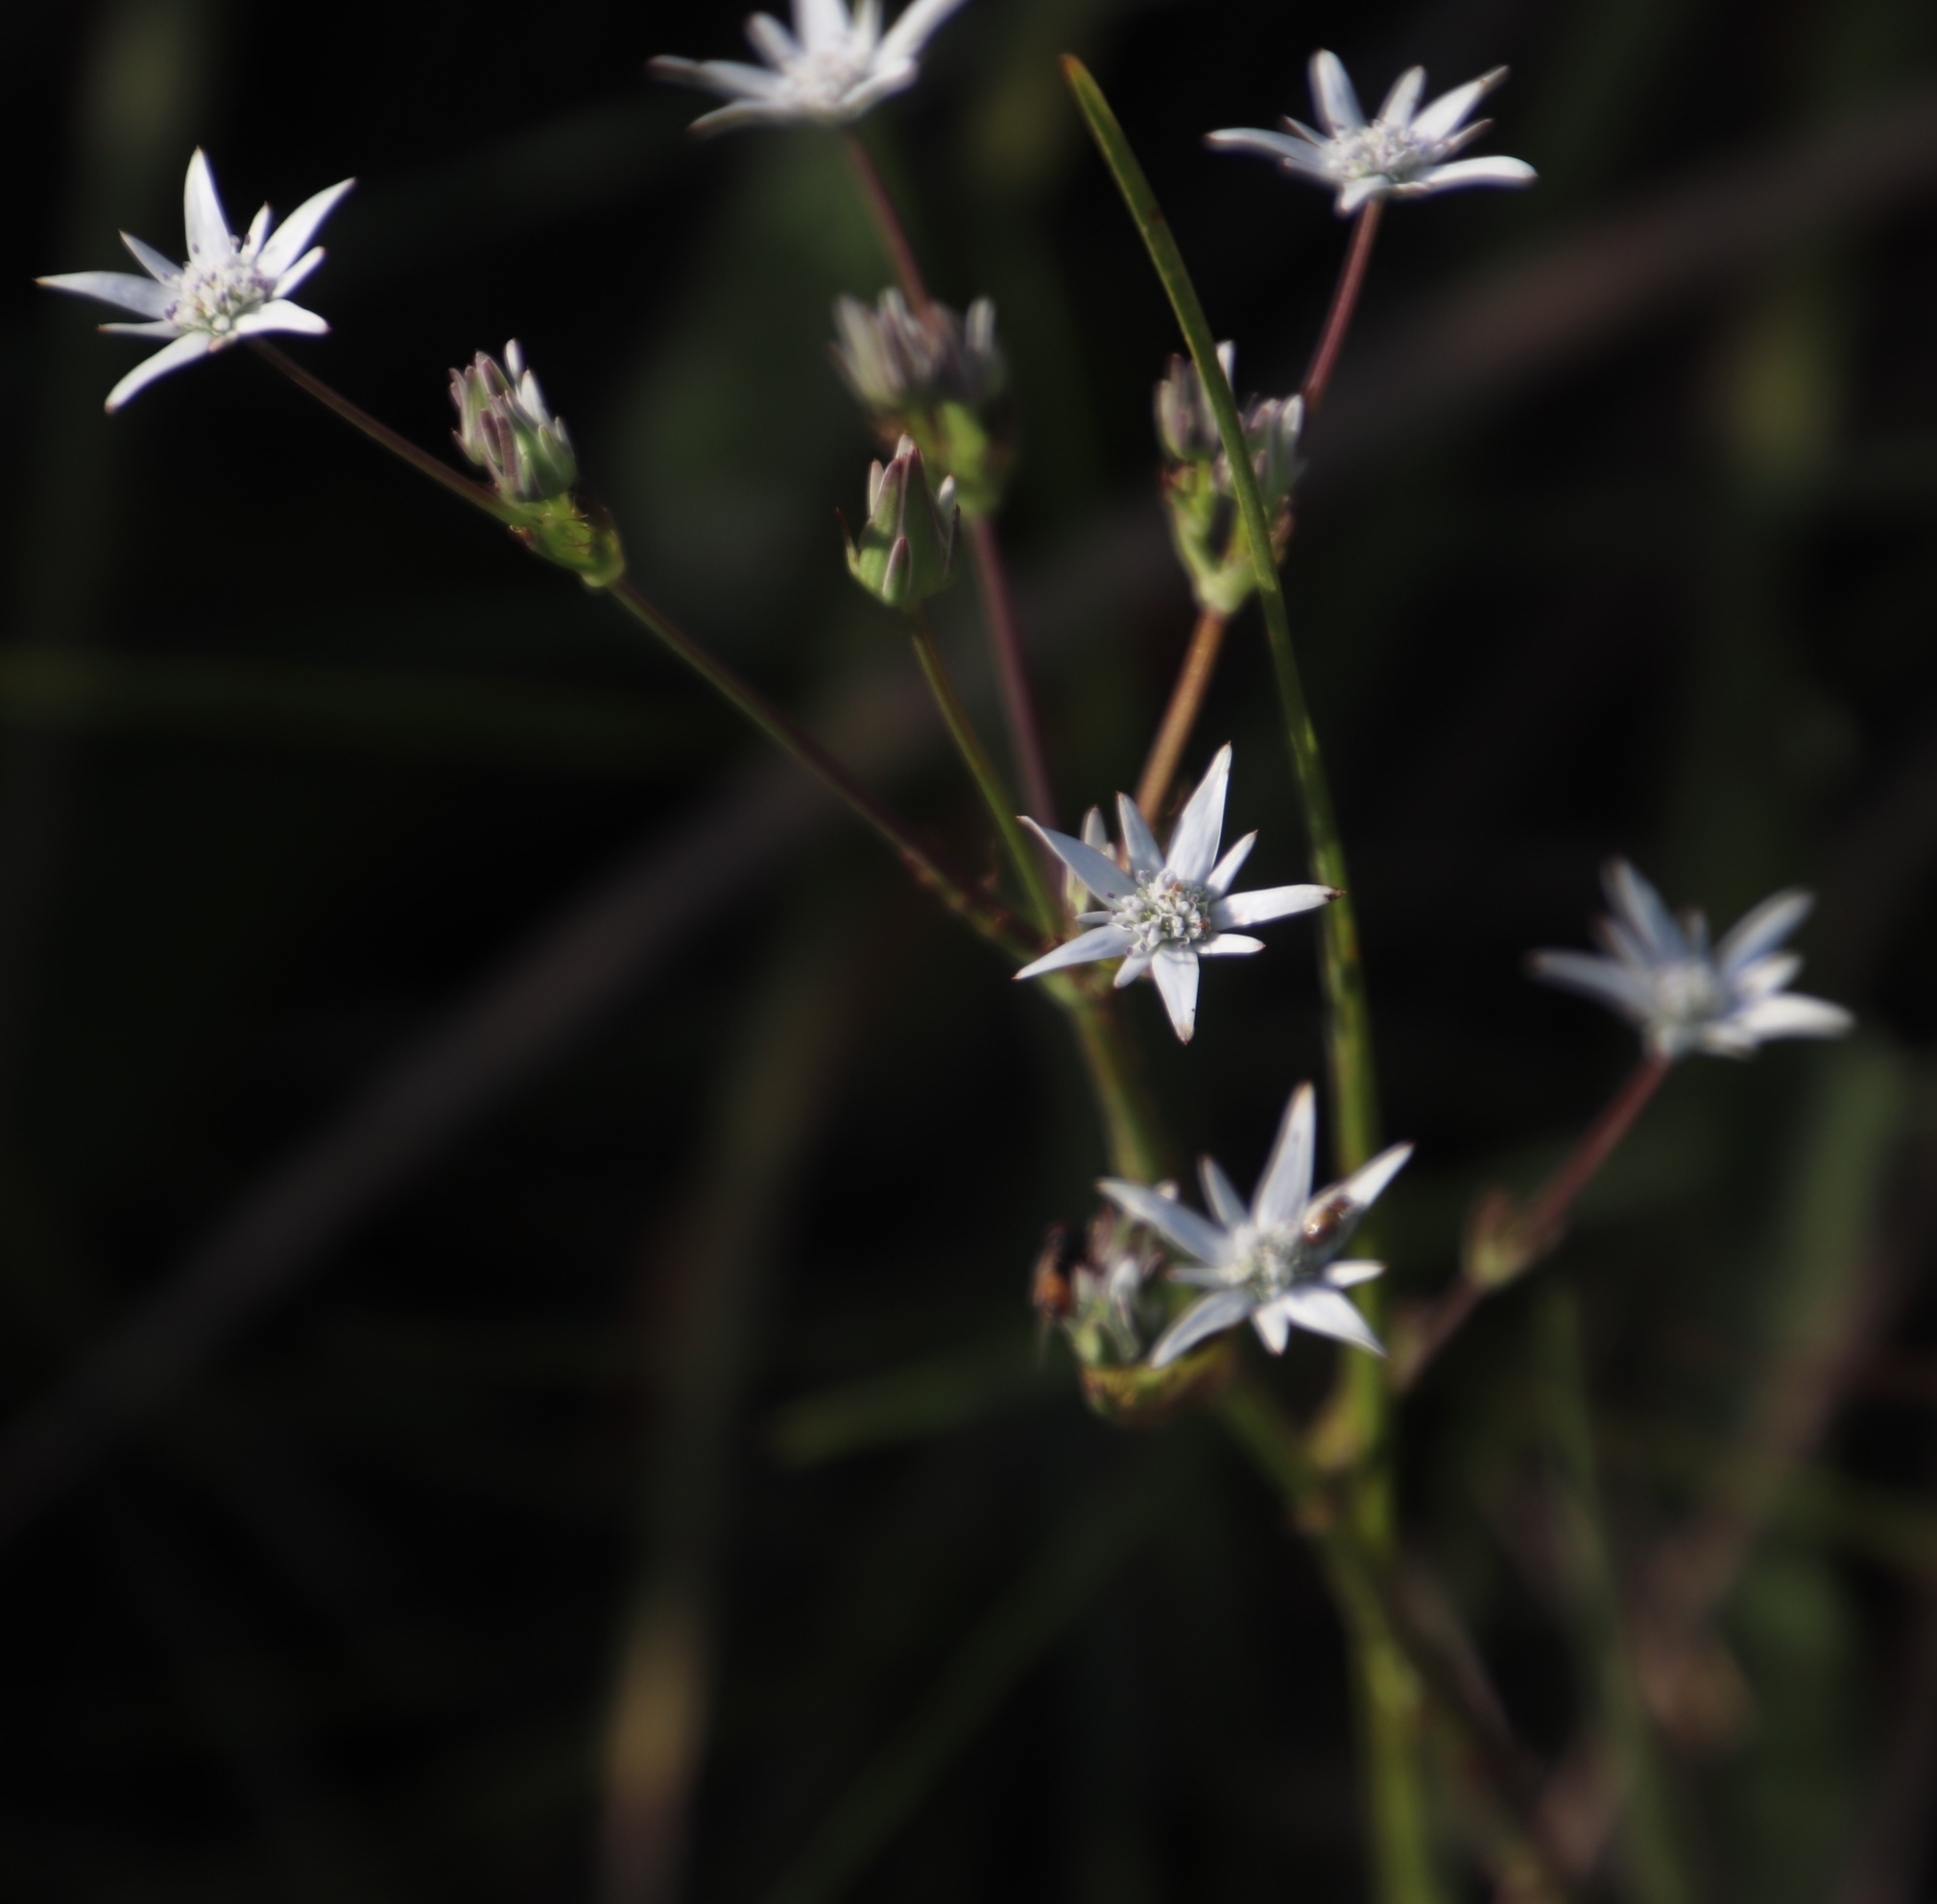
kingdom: Plantae
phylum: Tracheophyta
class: Magnoliopsida
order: Apiales
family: Apiaceae
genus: Alepidea
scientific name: Alepidea peduncularis
